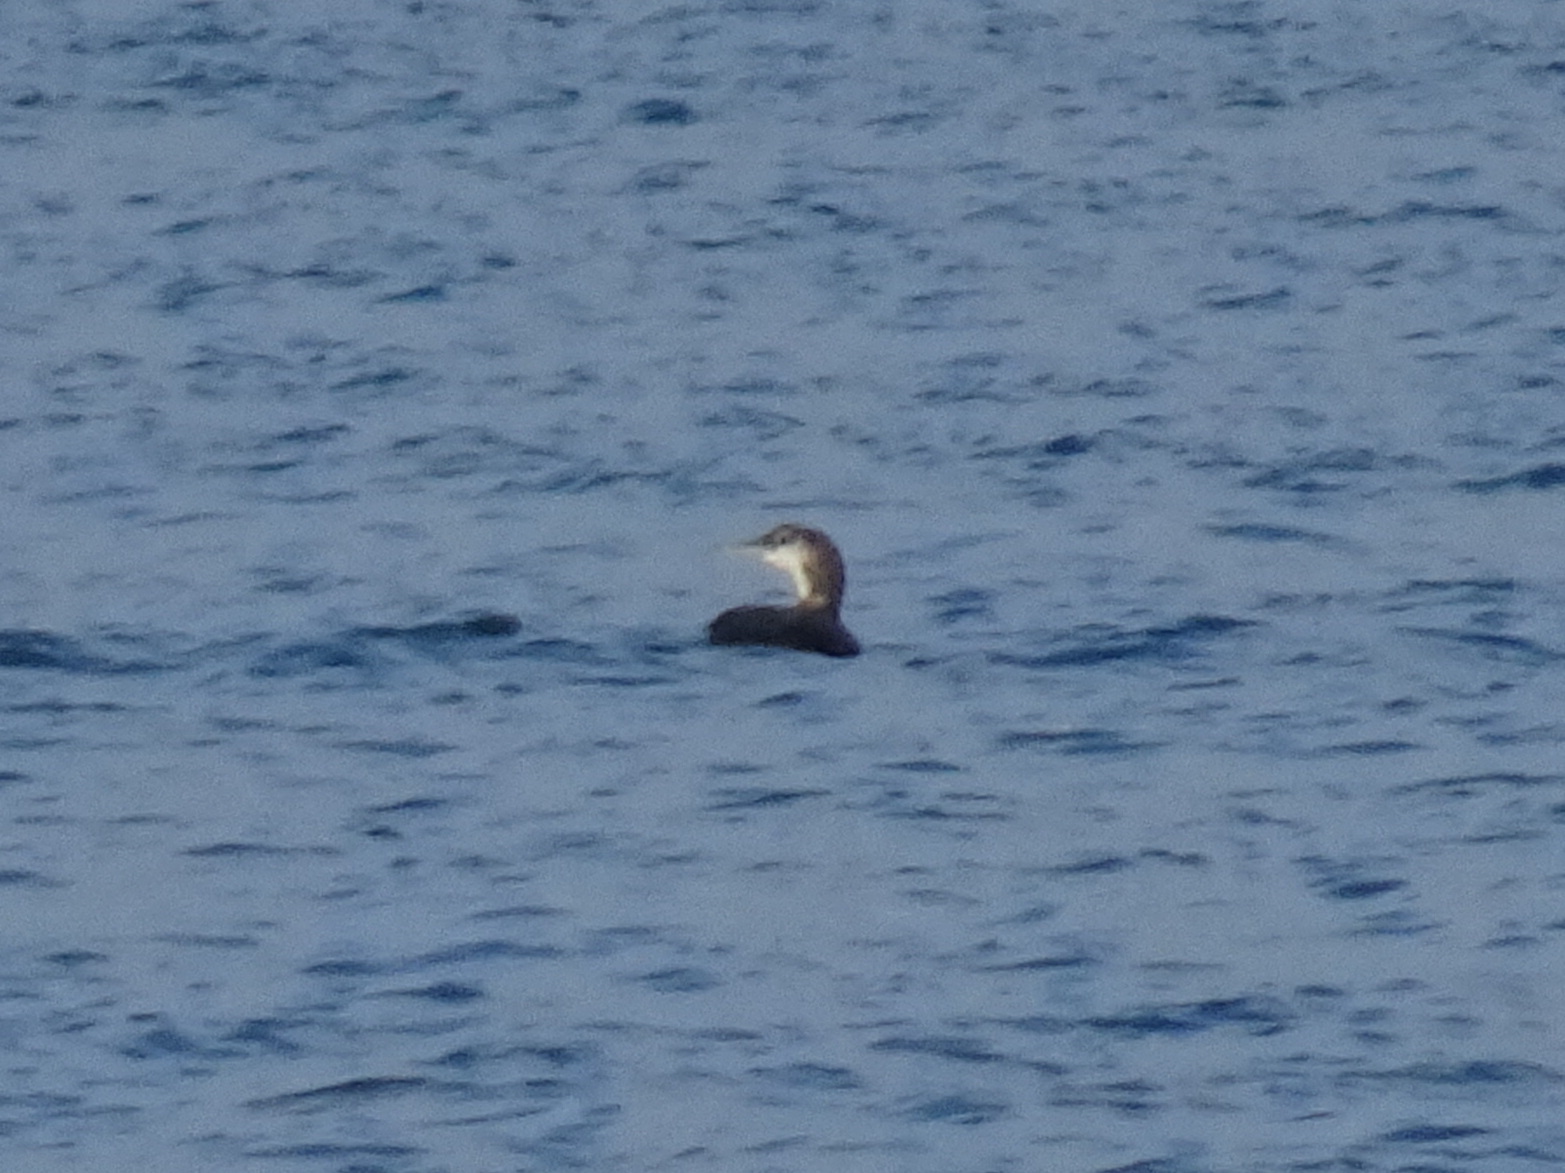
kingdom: Animalia
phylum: Chordata
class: Aves
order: Gaviiformes
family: Gaviidae
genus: Gavia
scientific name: Gavia immer
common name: Common loon
